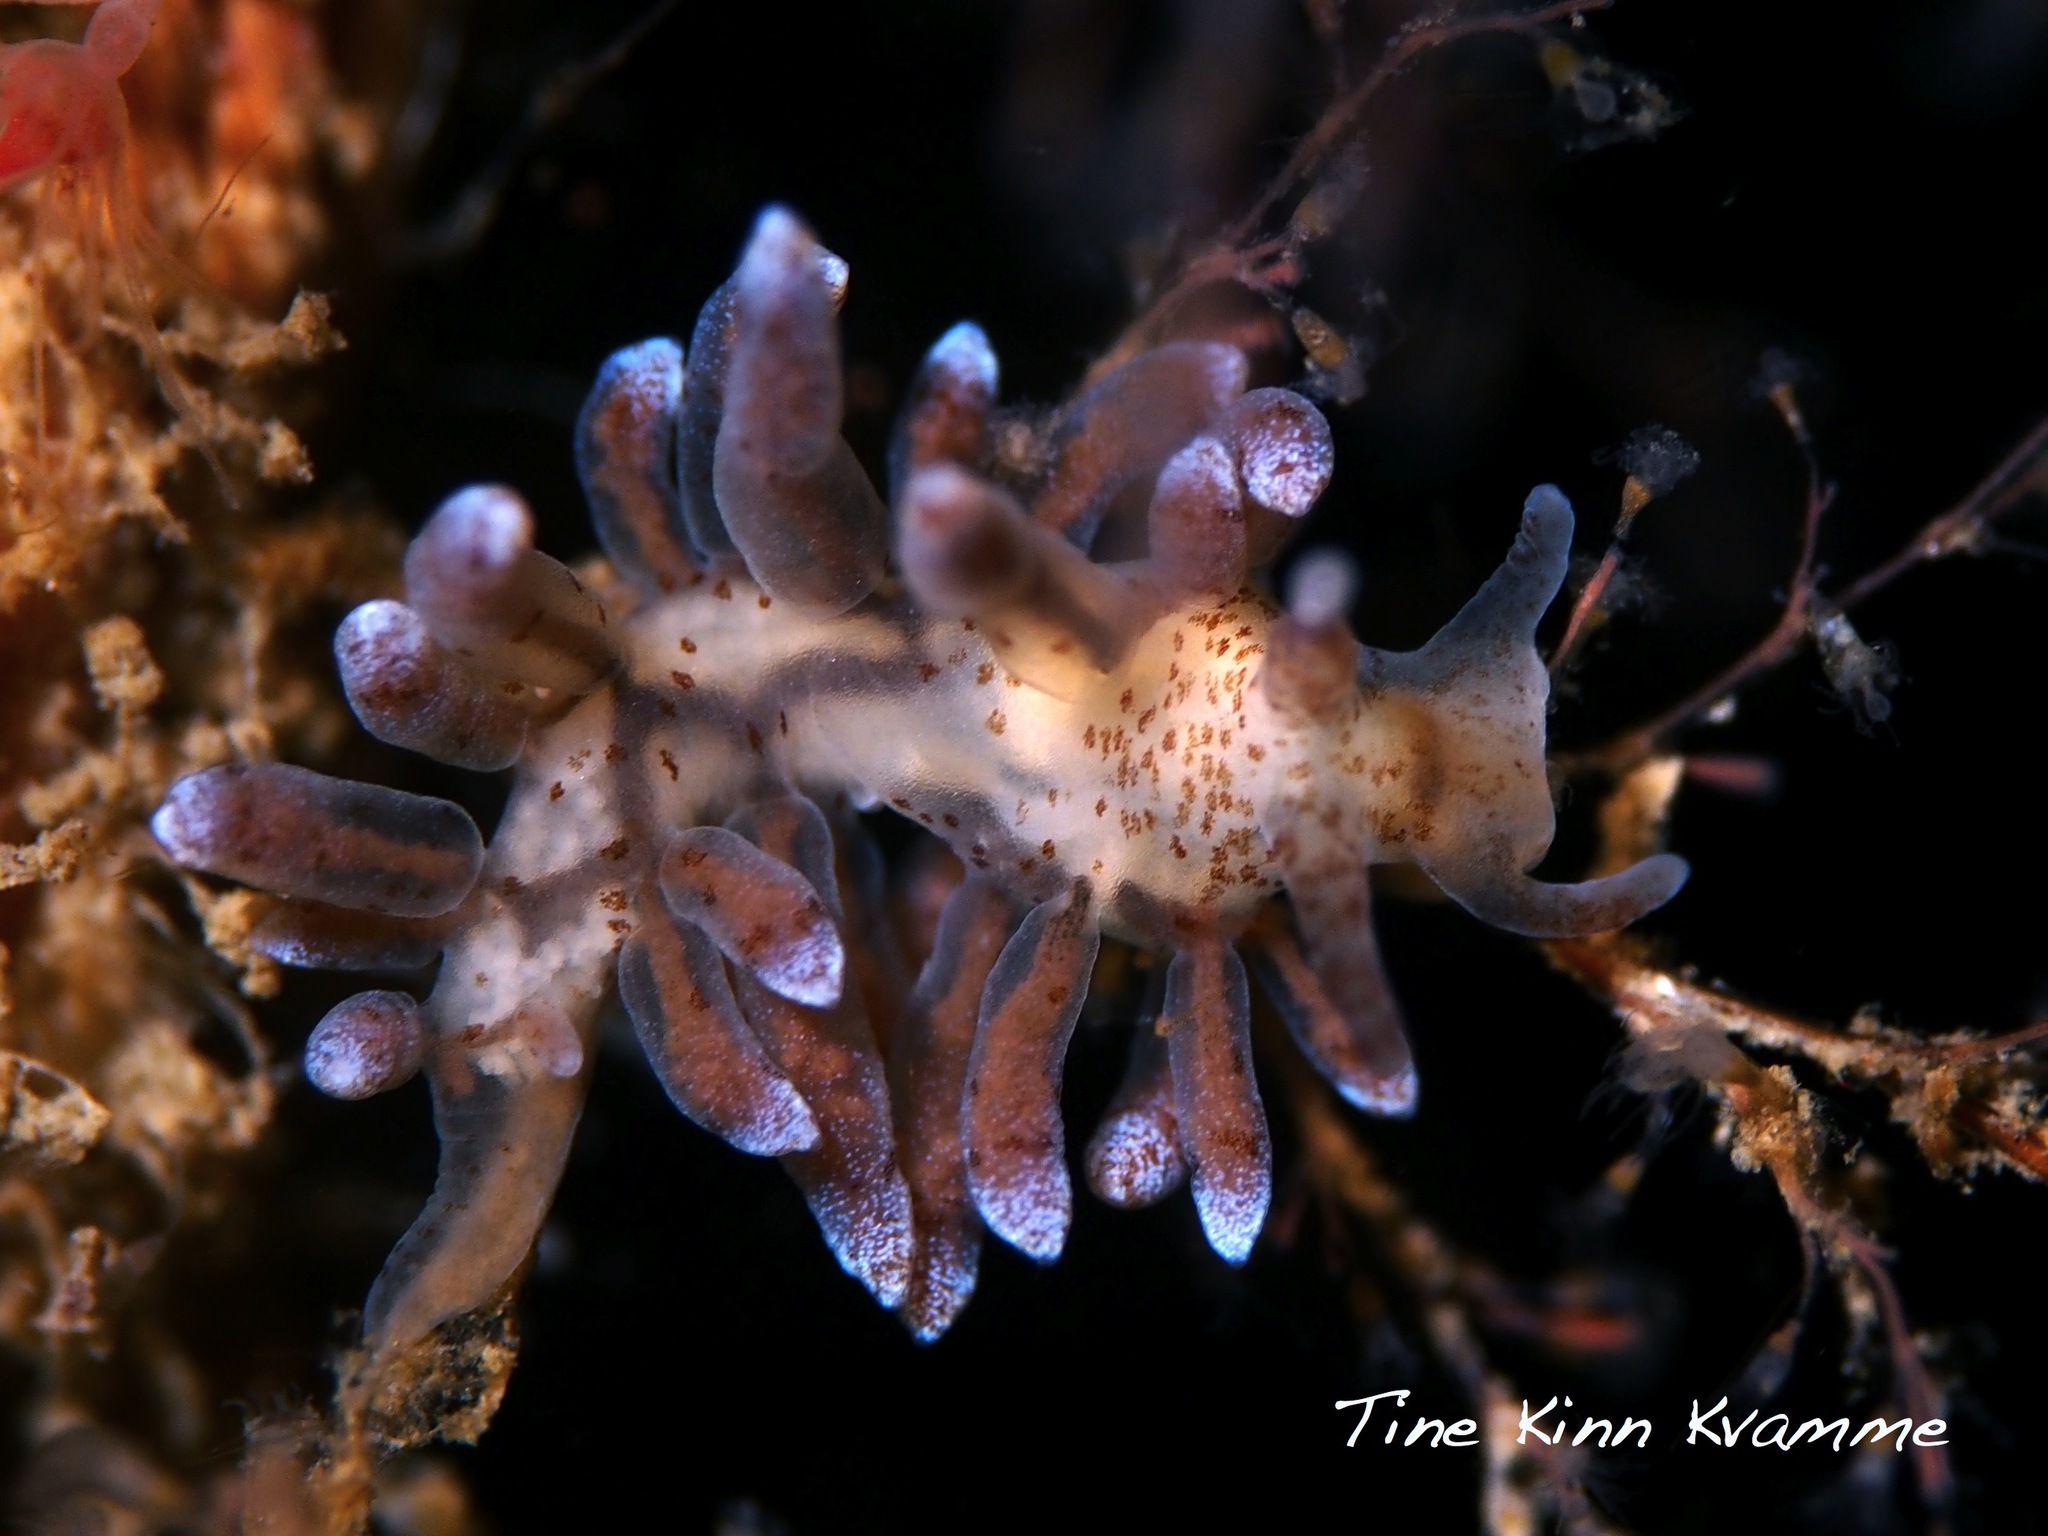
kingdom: Animalia
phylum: Mollusca
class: Gastropoda
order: Nudibranchia
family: Eubranchidae
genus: Eubranchus
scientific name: Eubranchus rupium
